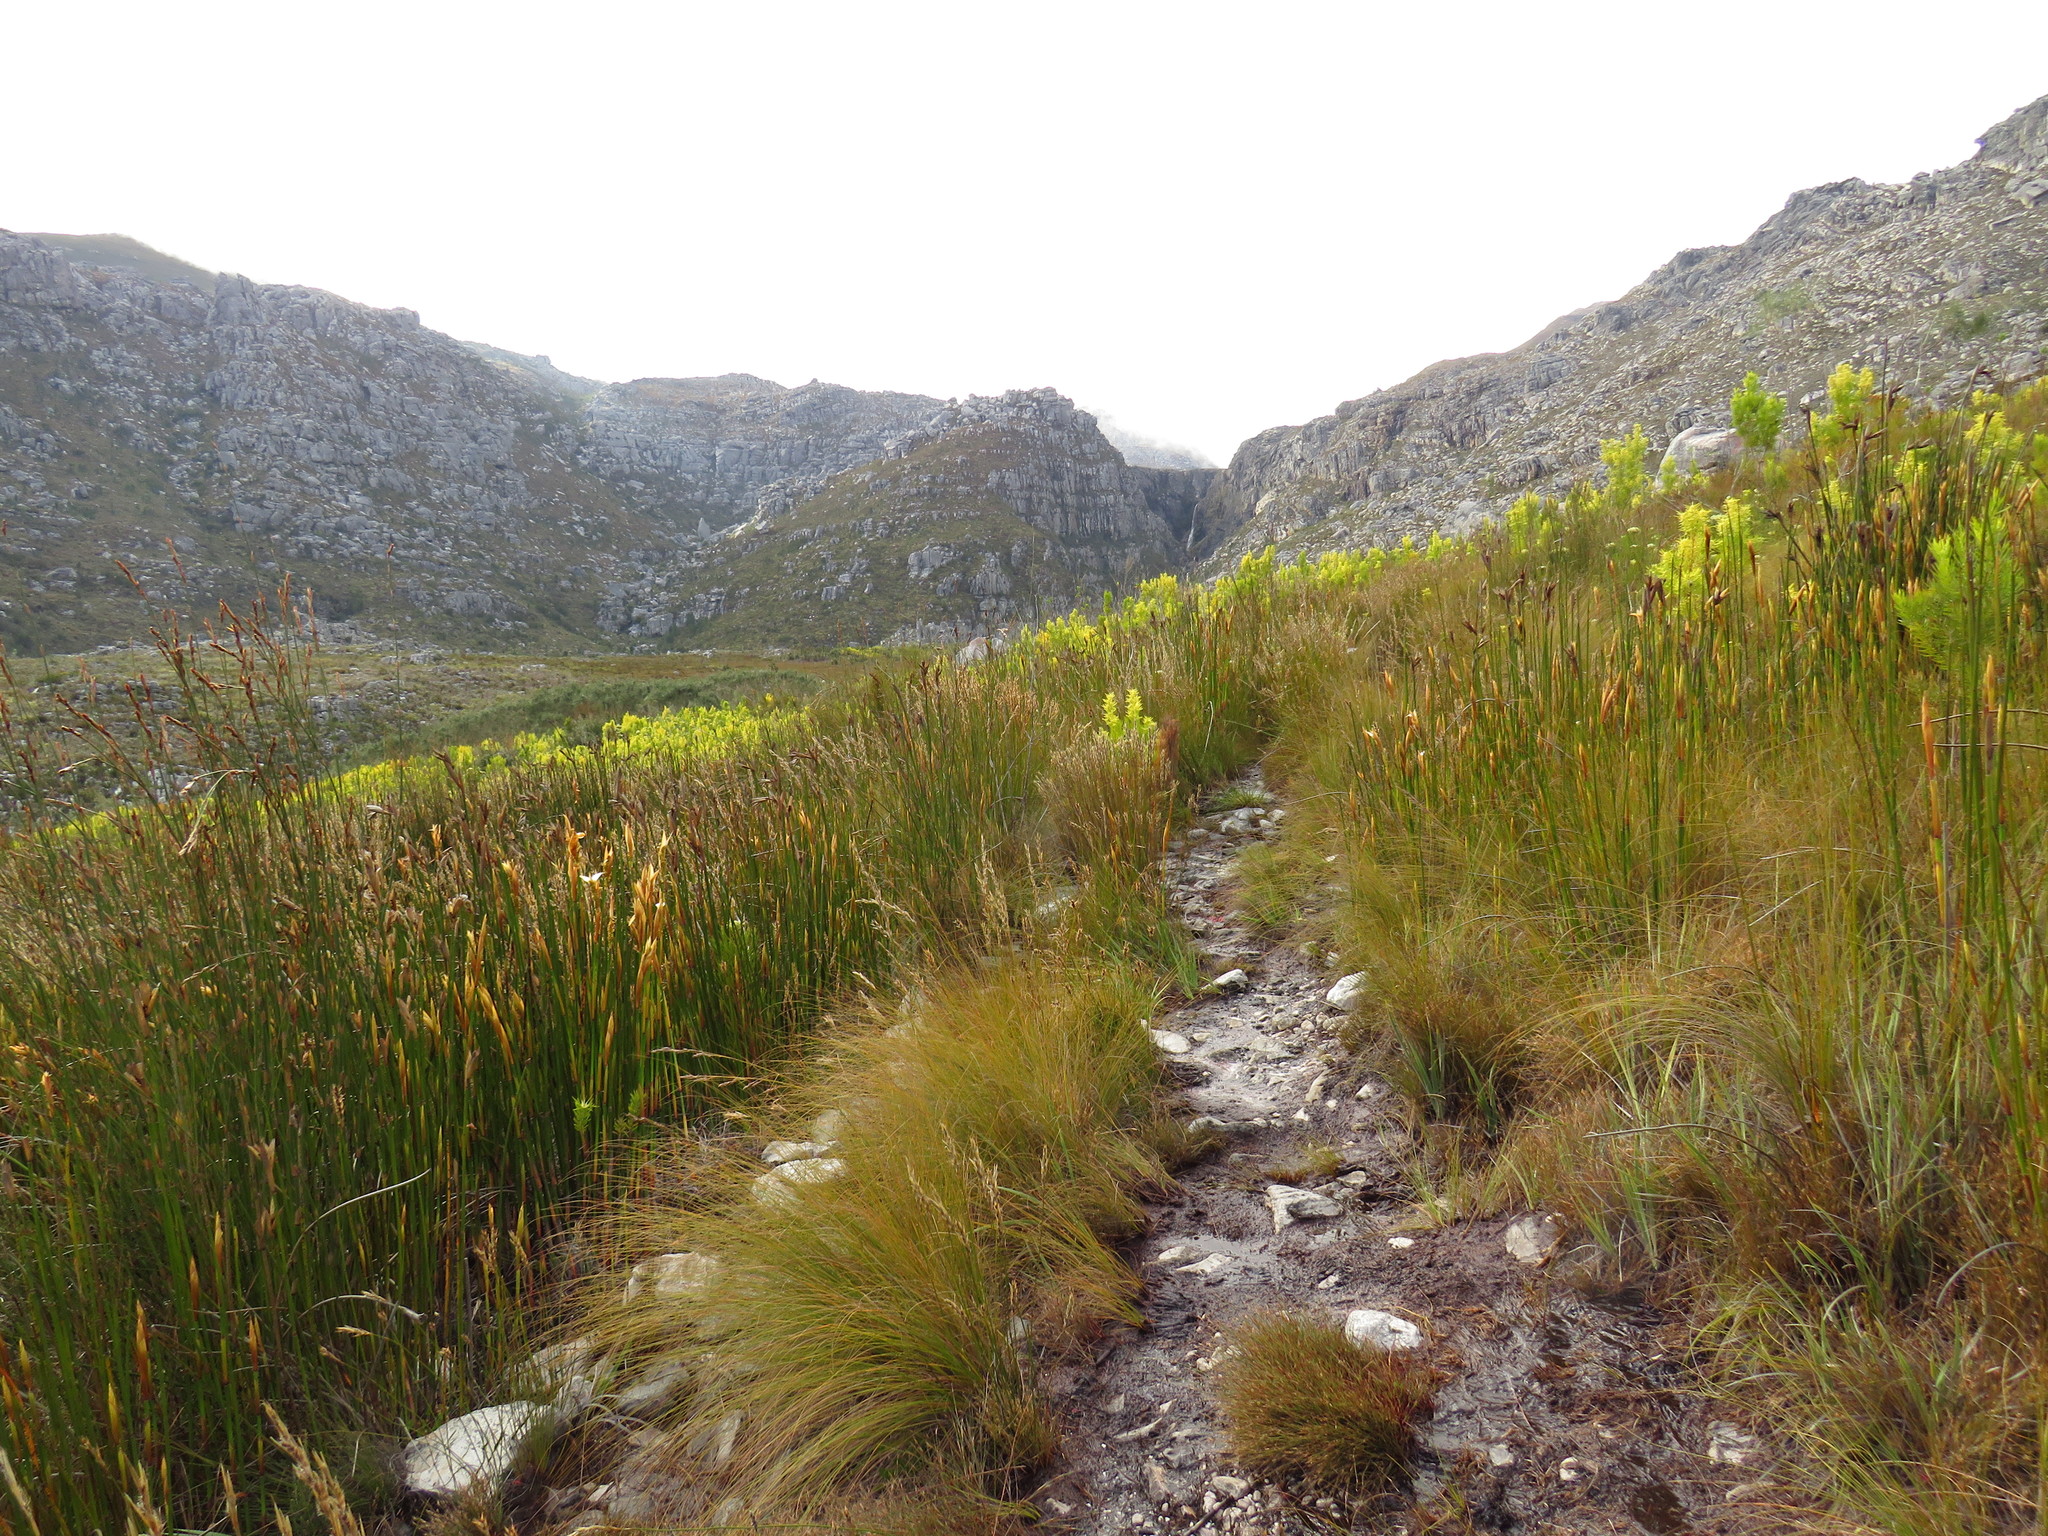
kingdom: Animalia
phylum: Chordata
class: Mammalia
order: Carnivora
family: Herpestidae
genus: Atilax
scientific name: Atilax paludinosus
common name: Marsh mongoose
